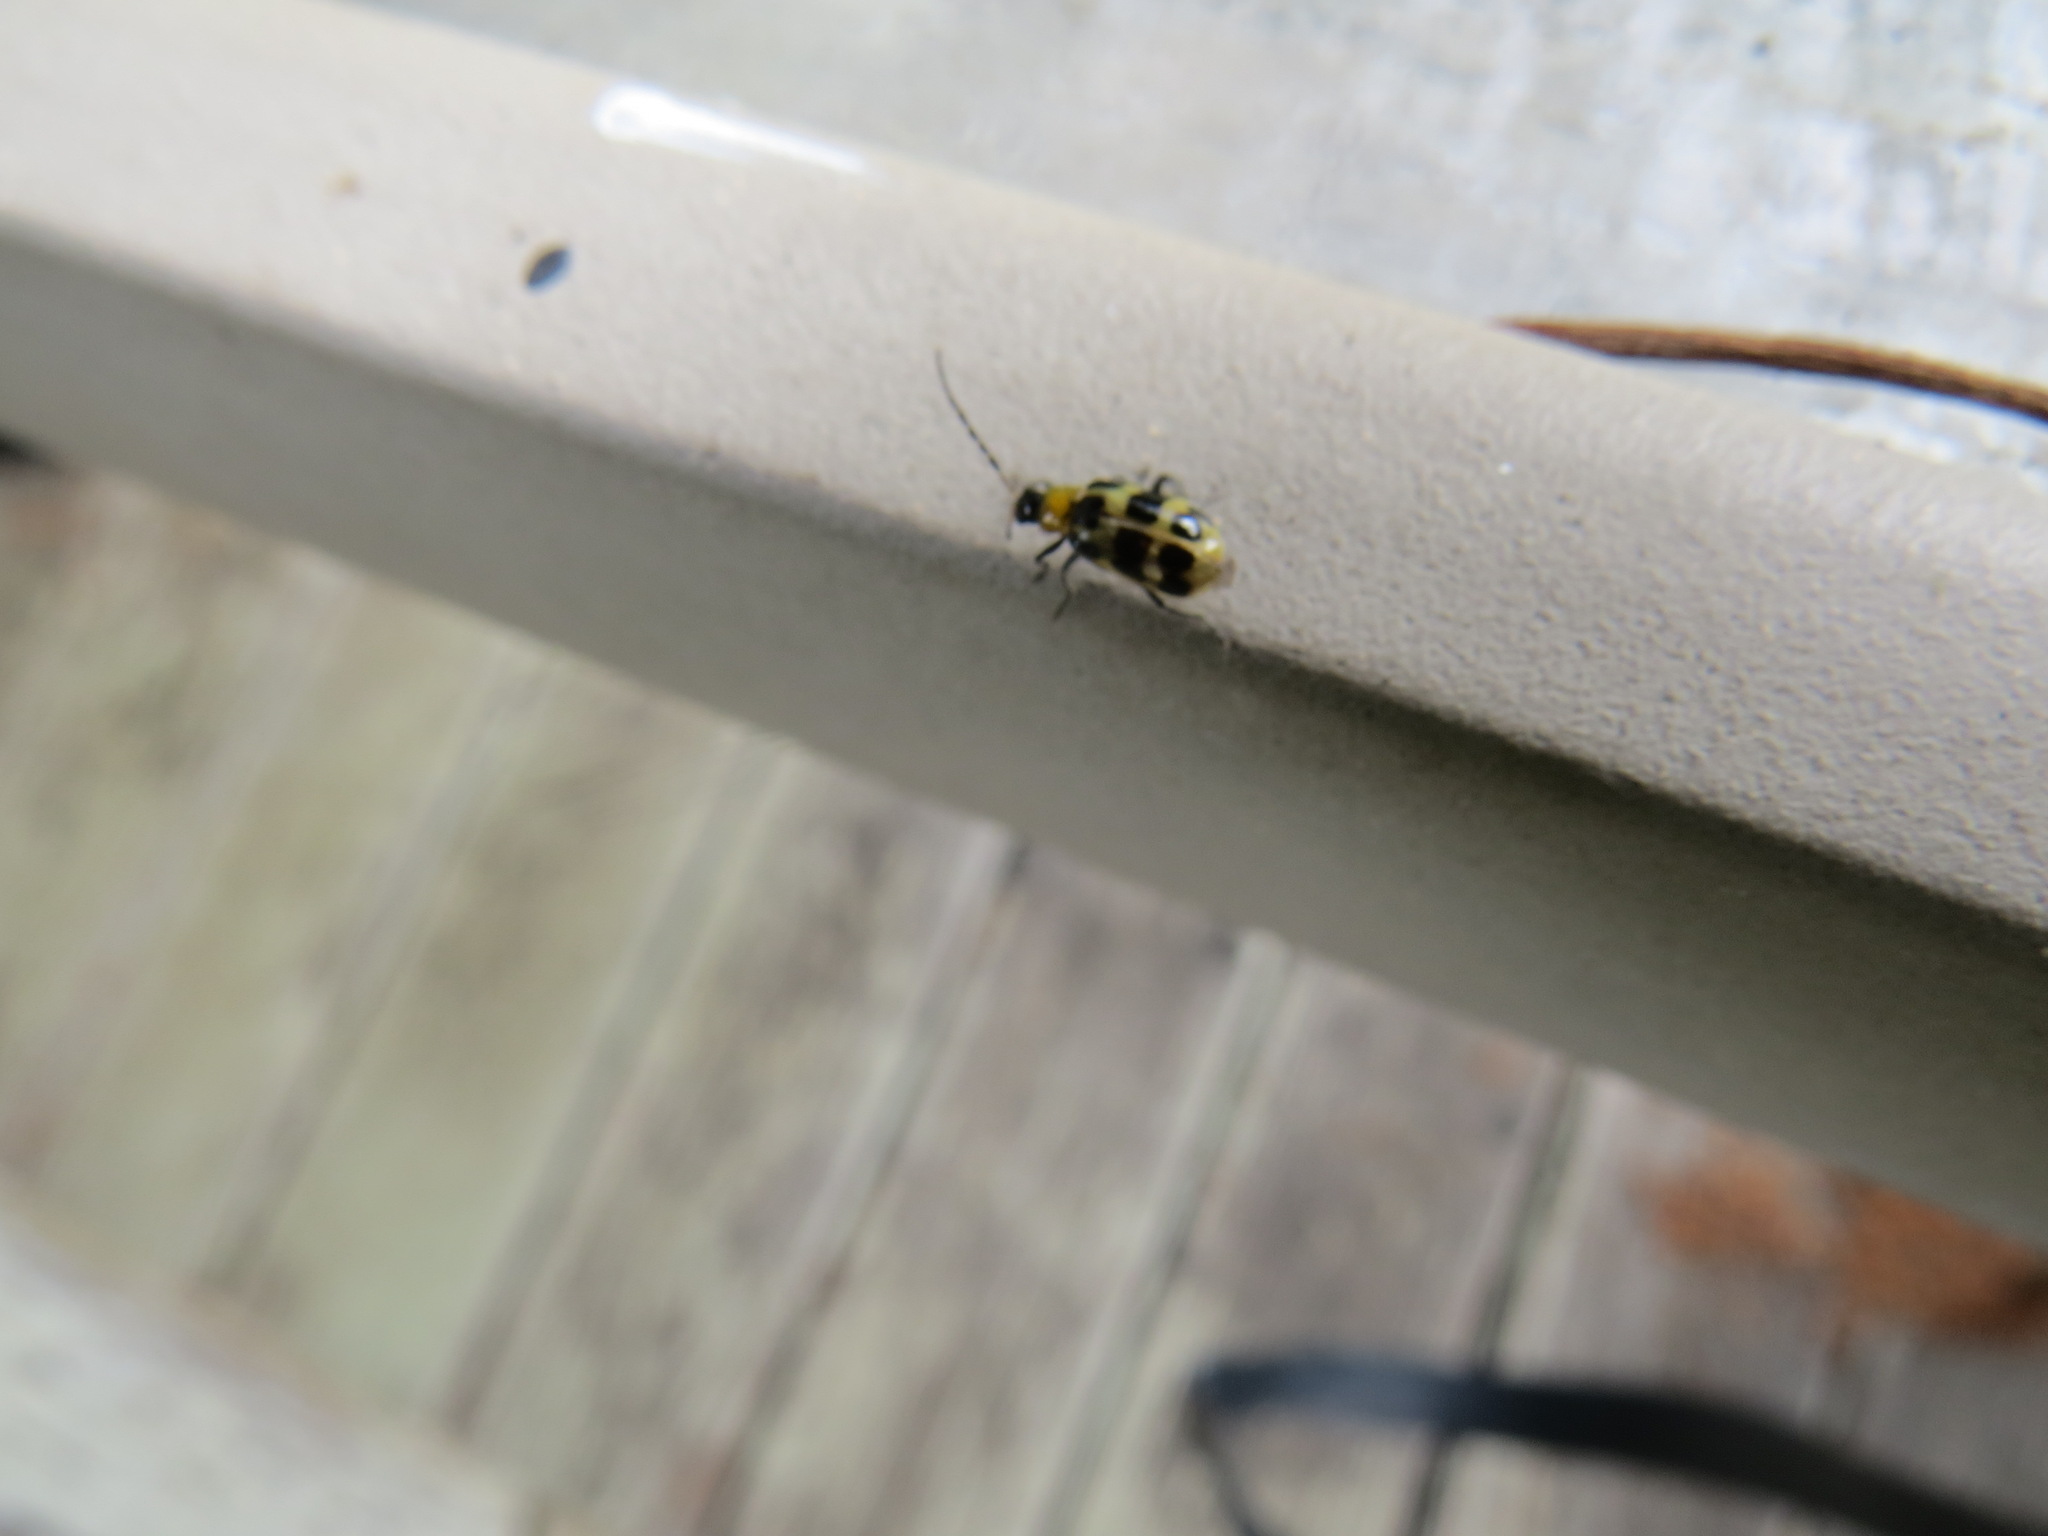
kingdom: Animalia
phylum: Arthropoda
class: Insecta
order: Coleoptera
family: Chrysomelidae
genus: Diabrotica
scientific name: Diabrotica undecimpunctata
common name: Spotted cucumber beetle
